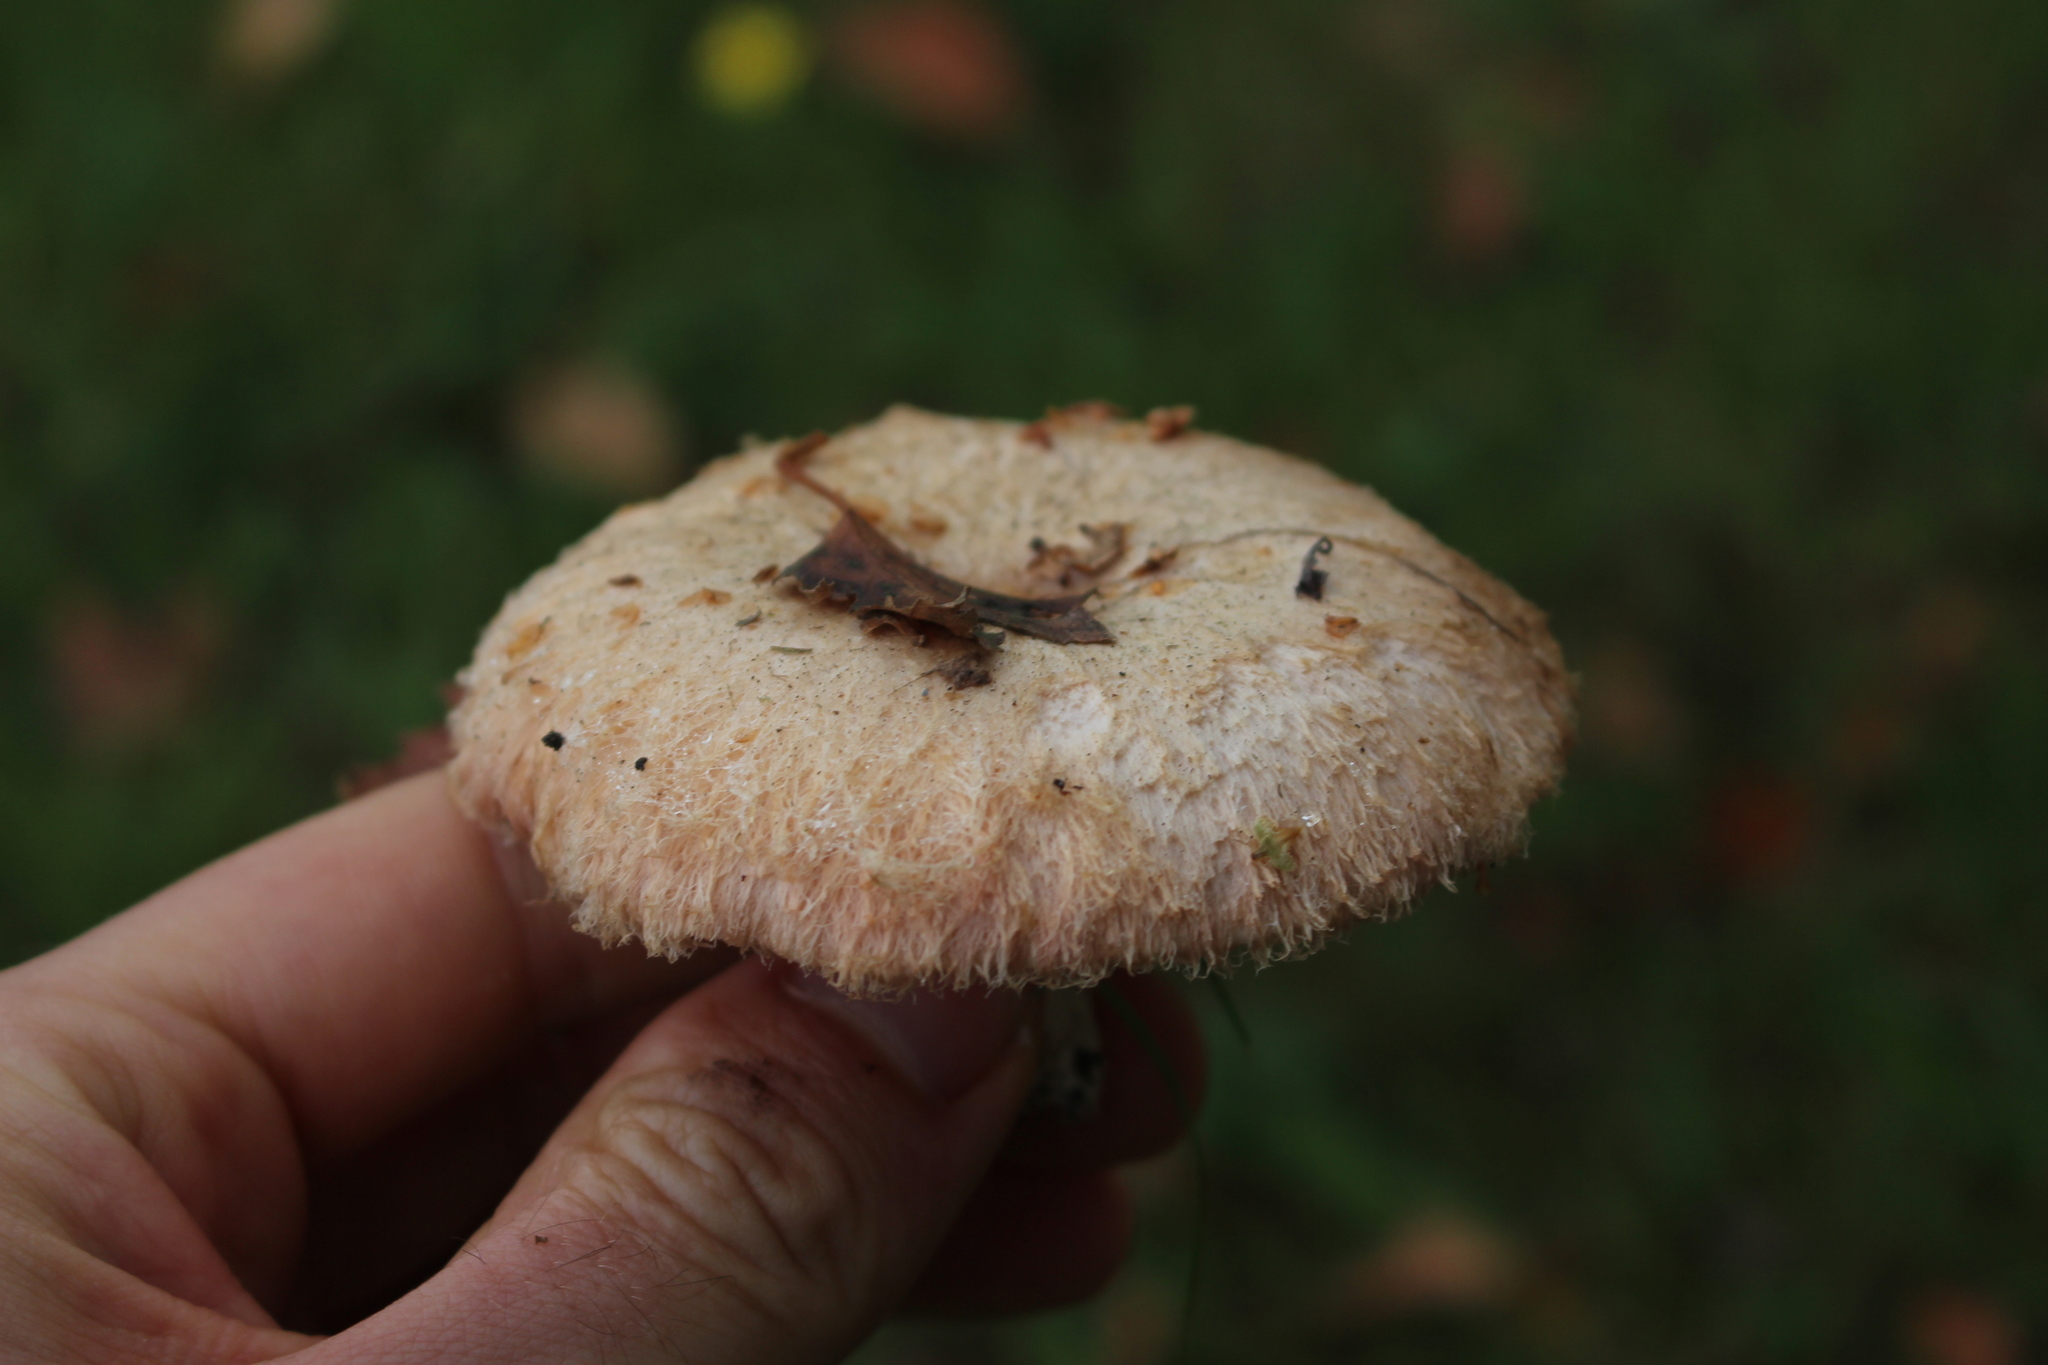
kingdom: Fungi
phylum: Basidiomycota
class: Agaricomycetes
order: Russulales
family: Russulaceae
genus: Lactarius
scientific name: Lactarius pubescens
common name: Bearded milkcap
